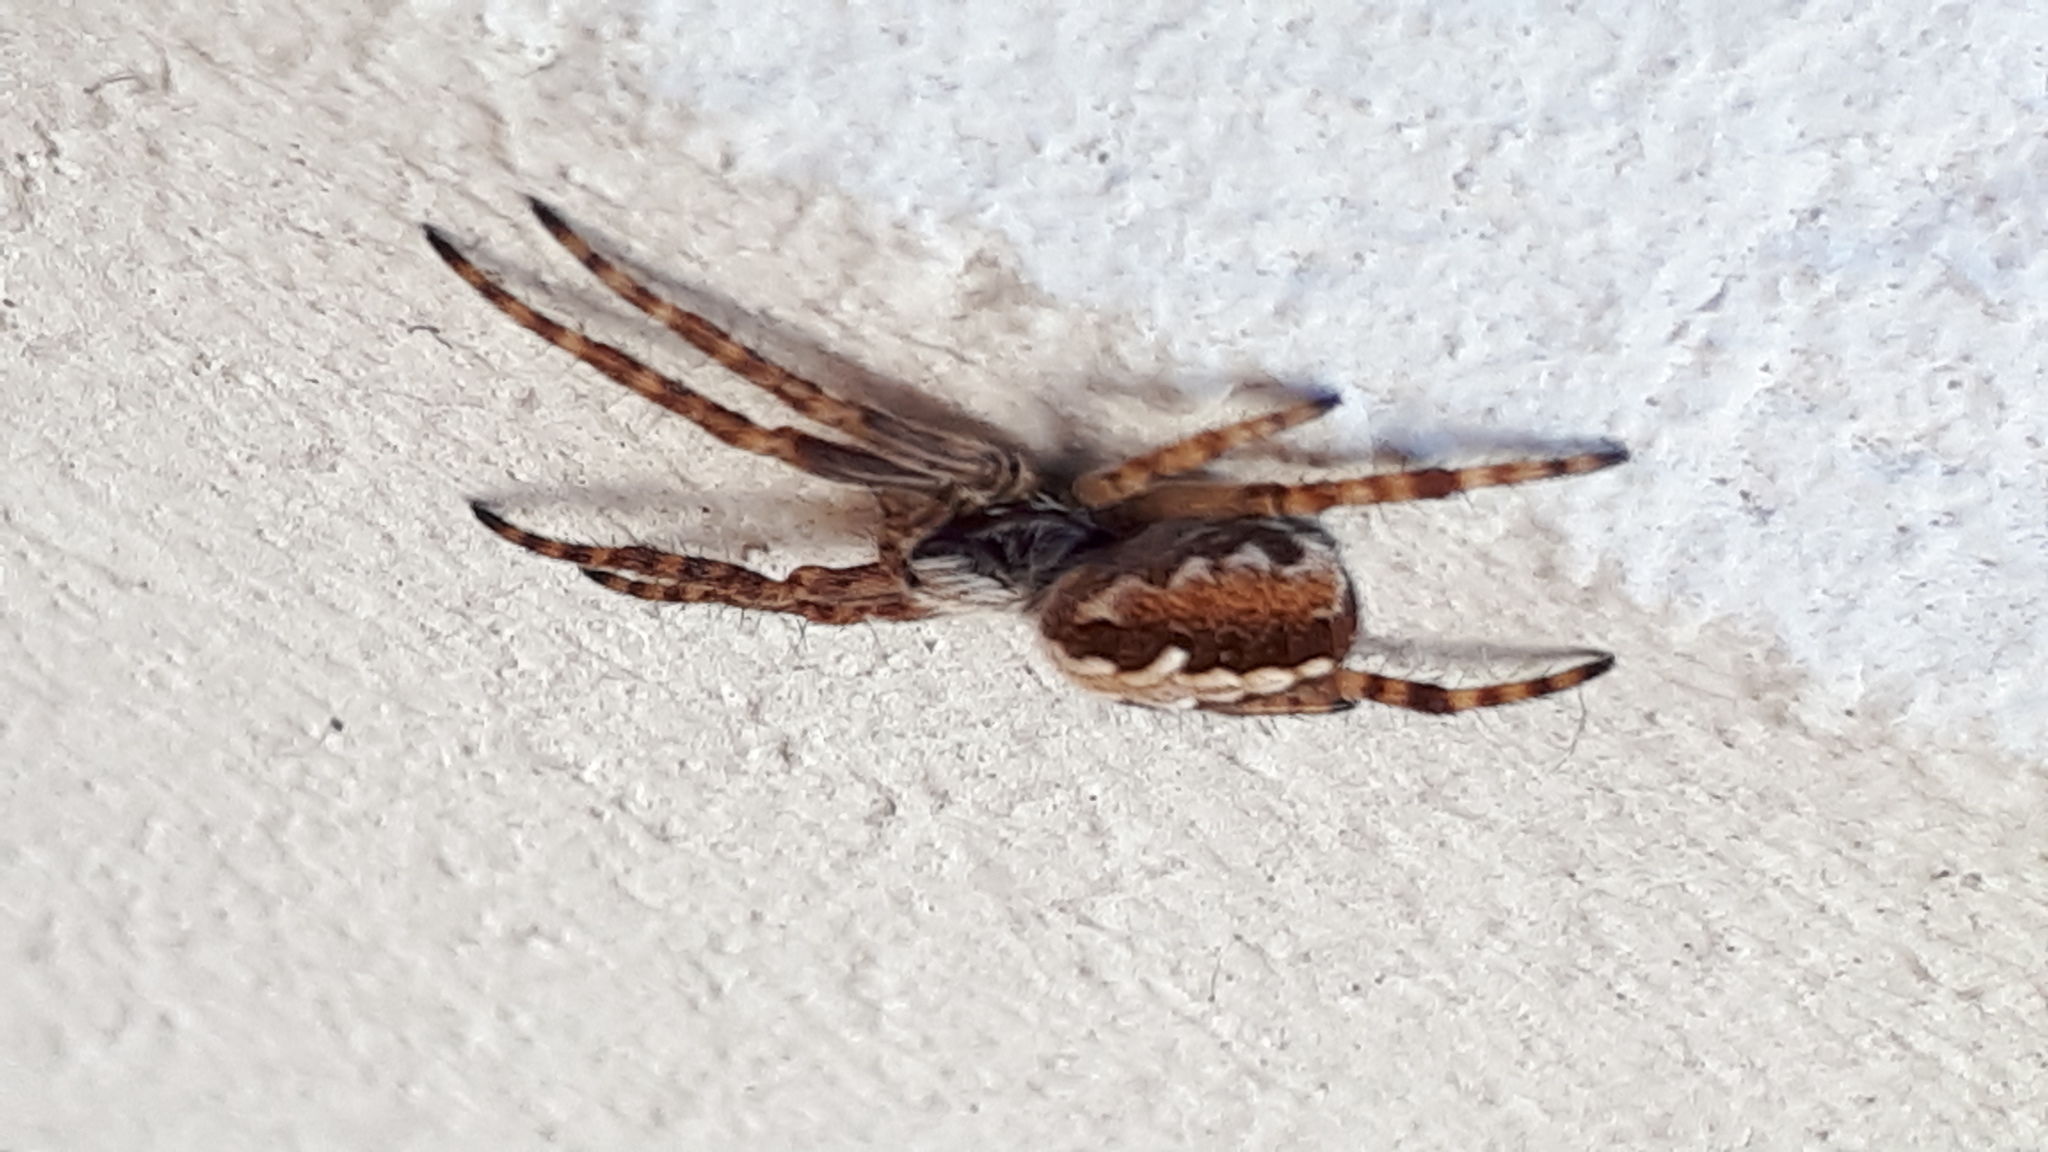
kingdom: Animalia
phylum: Arthropoda
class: Arachnida
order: Araneae
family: Araneidae
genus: Aculepeira
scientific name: Aculepeira ceropegia
